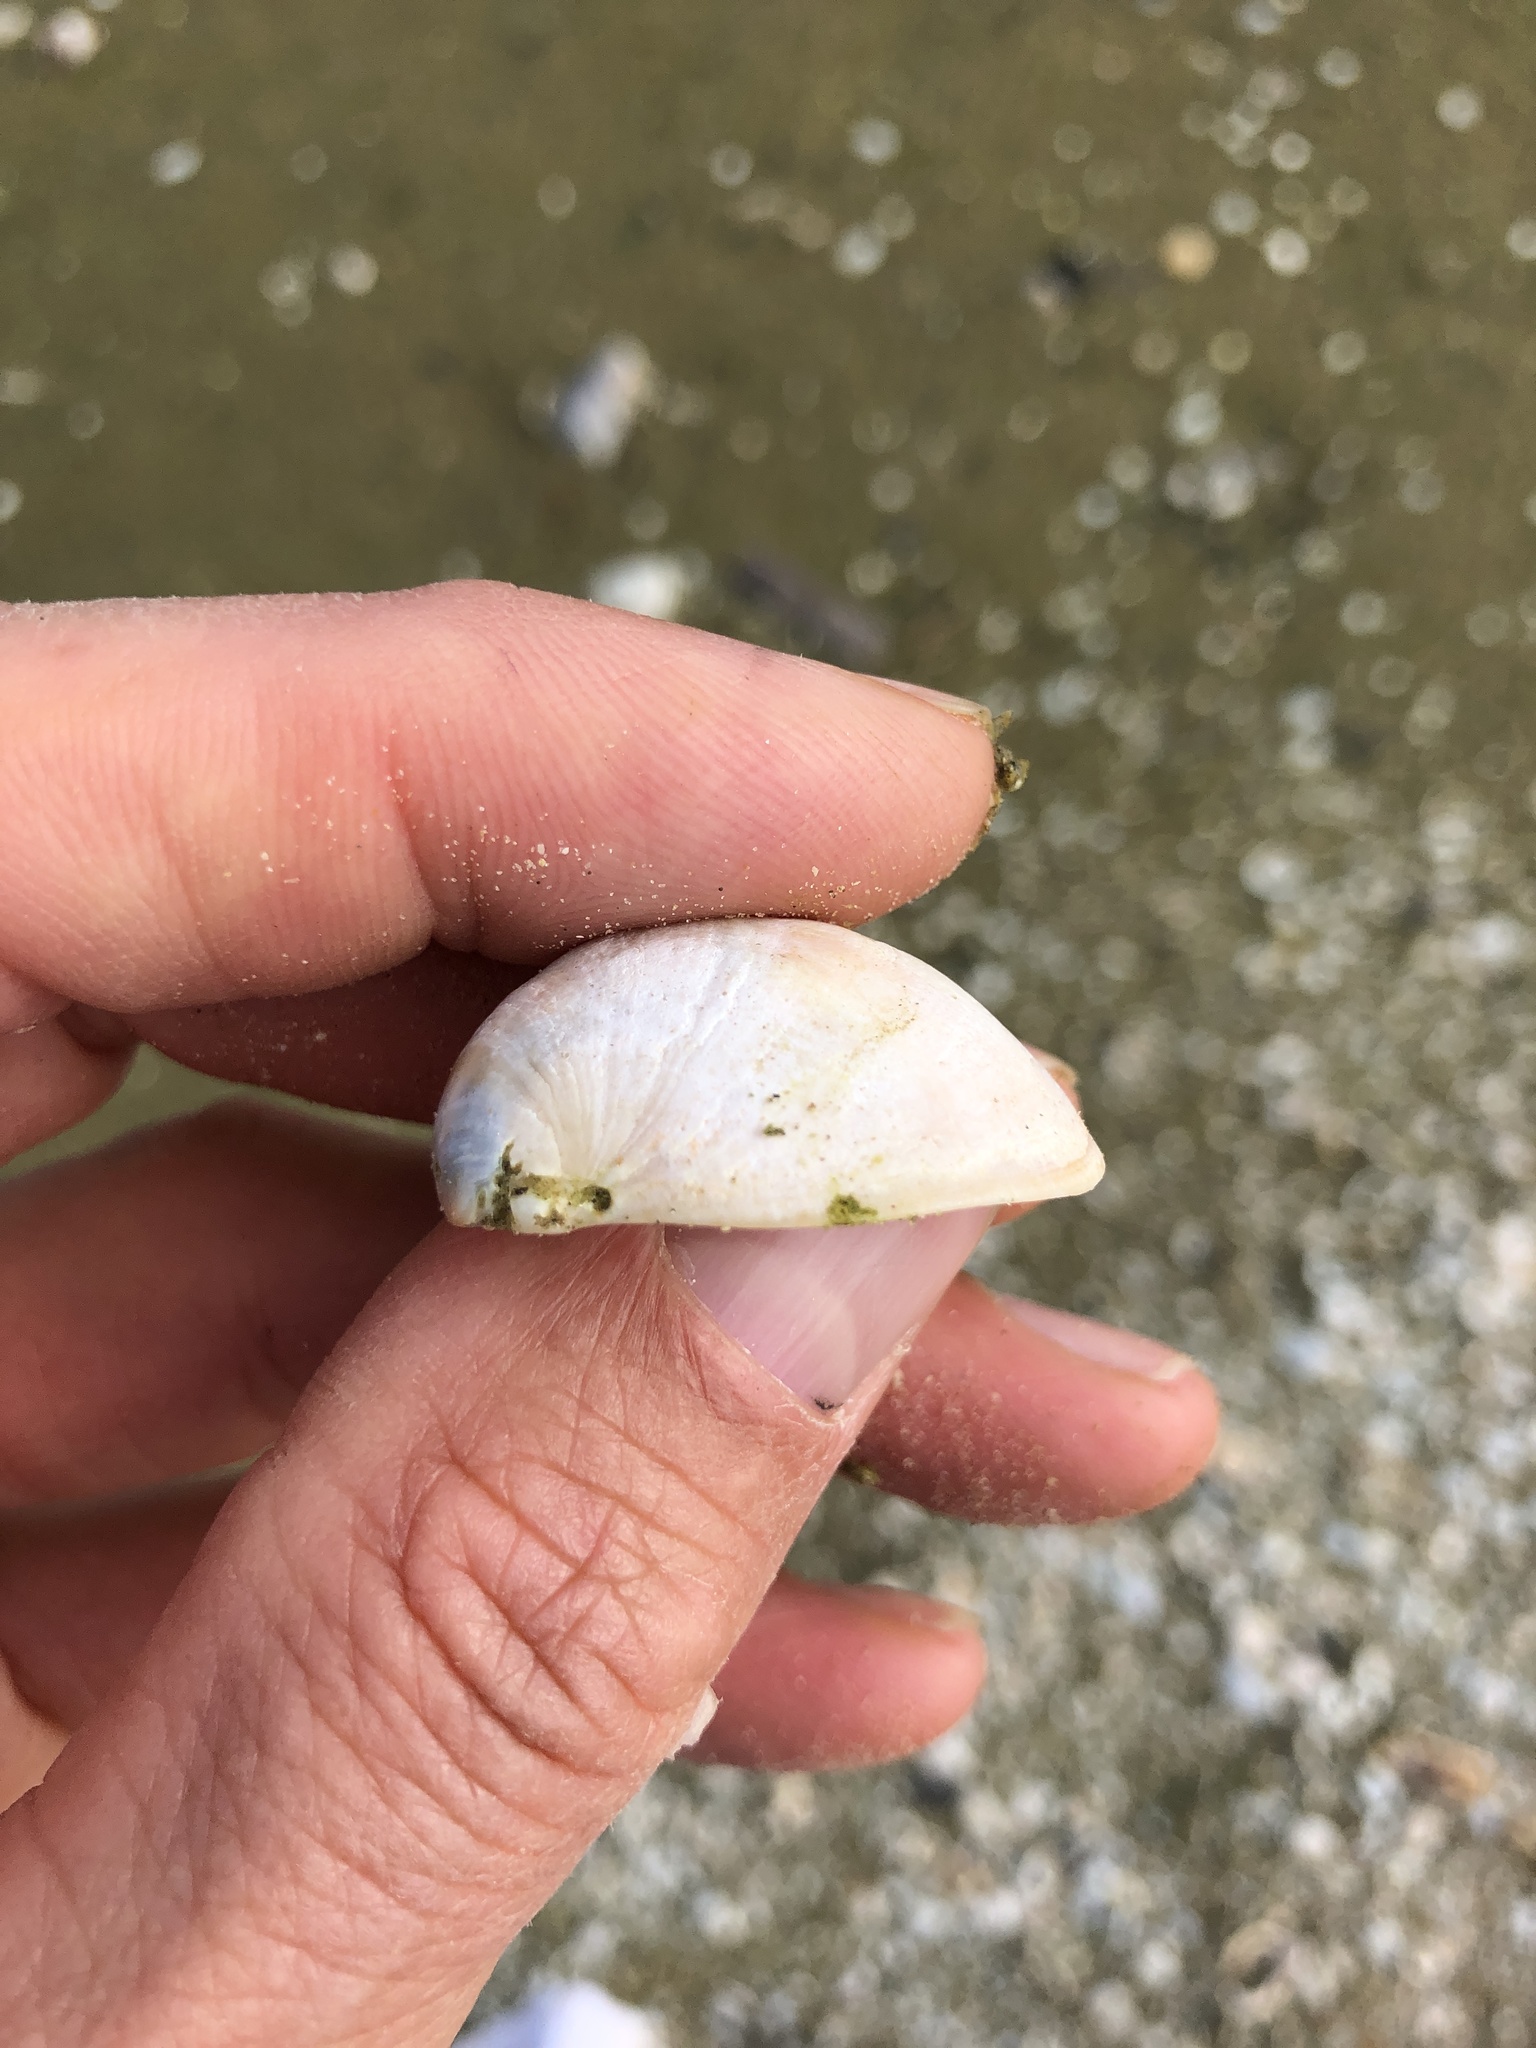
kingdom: Animalia
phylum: Mollusca
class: Gastropoda
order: Littorinimorpha
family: Calyptraeidae
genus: Crepidula
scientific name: Crepidula fornicata
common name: Slipper limpet
